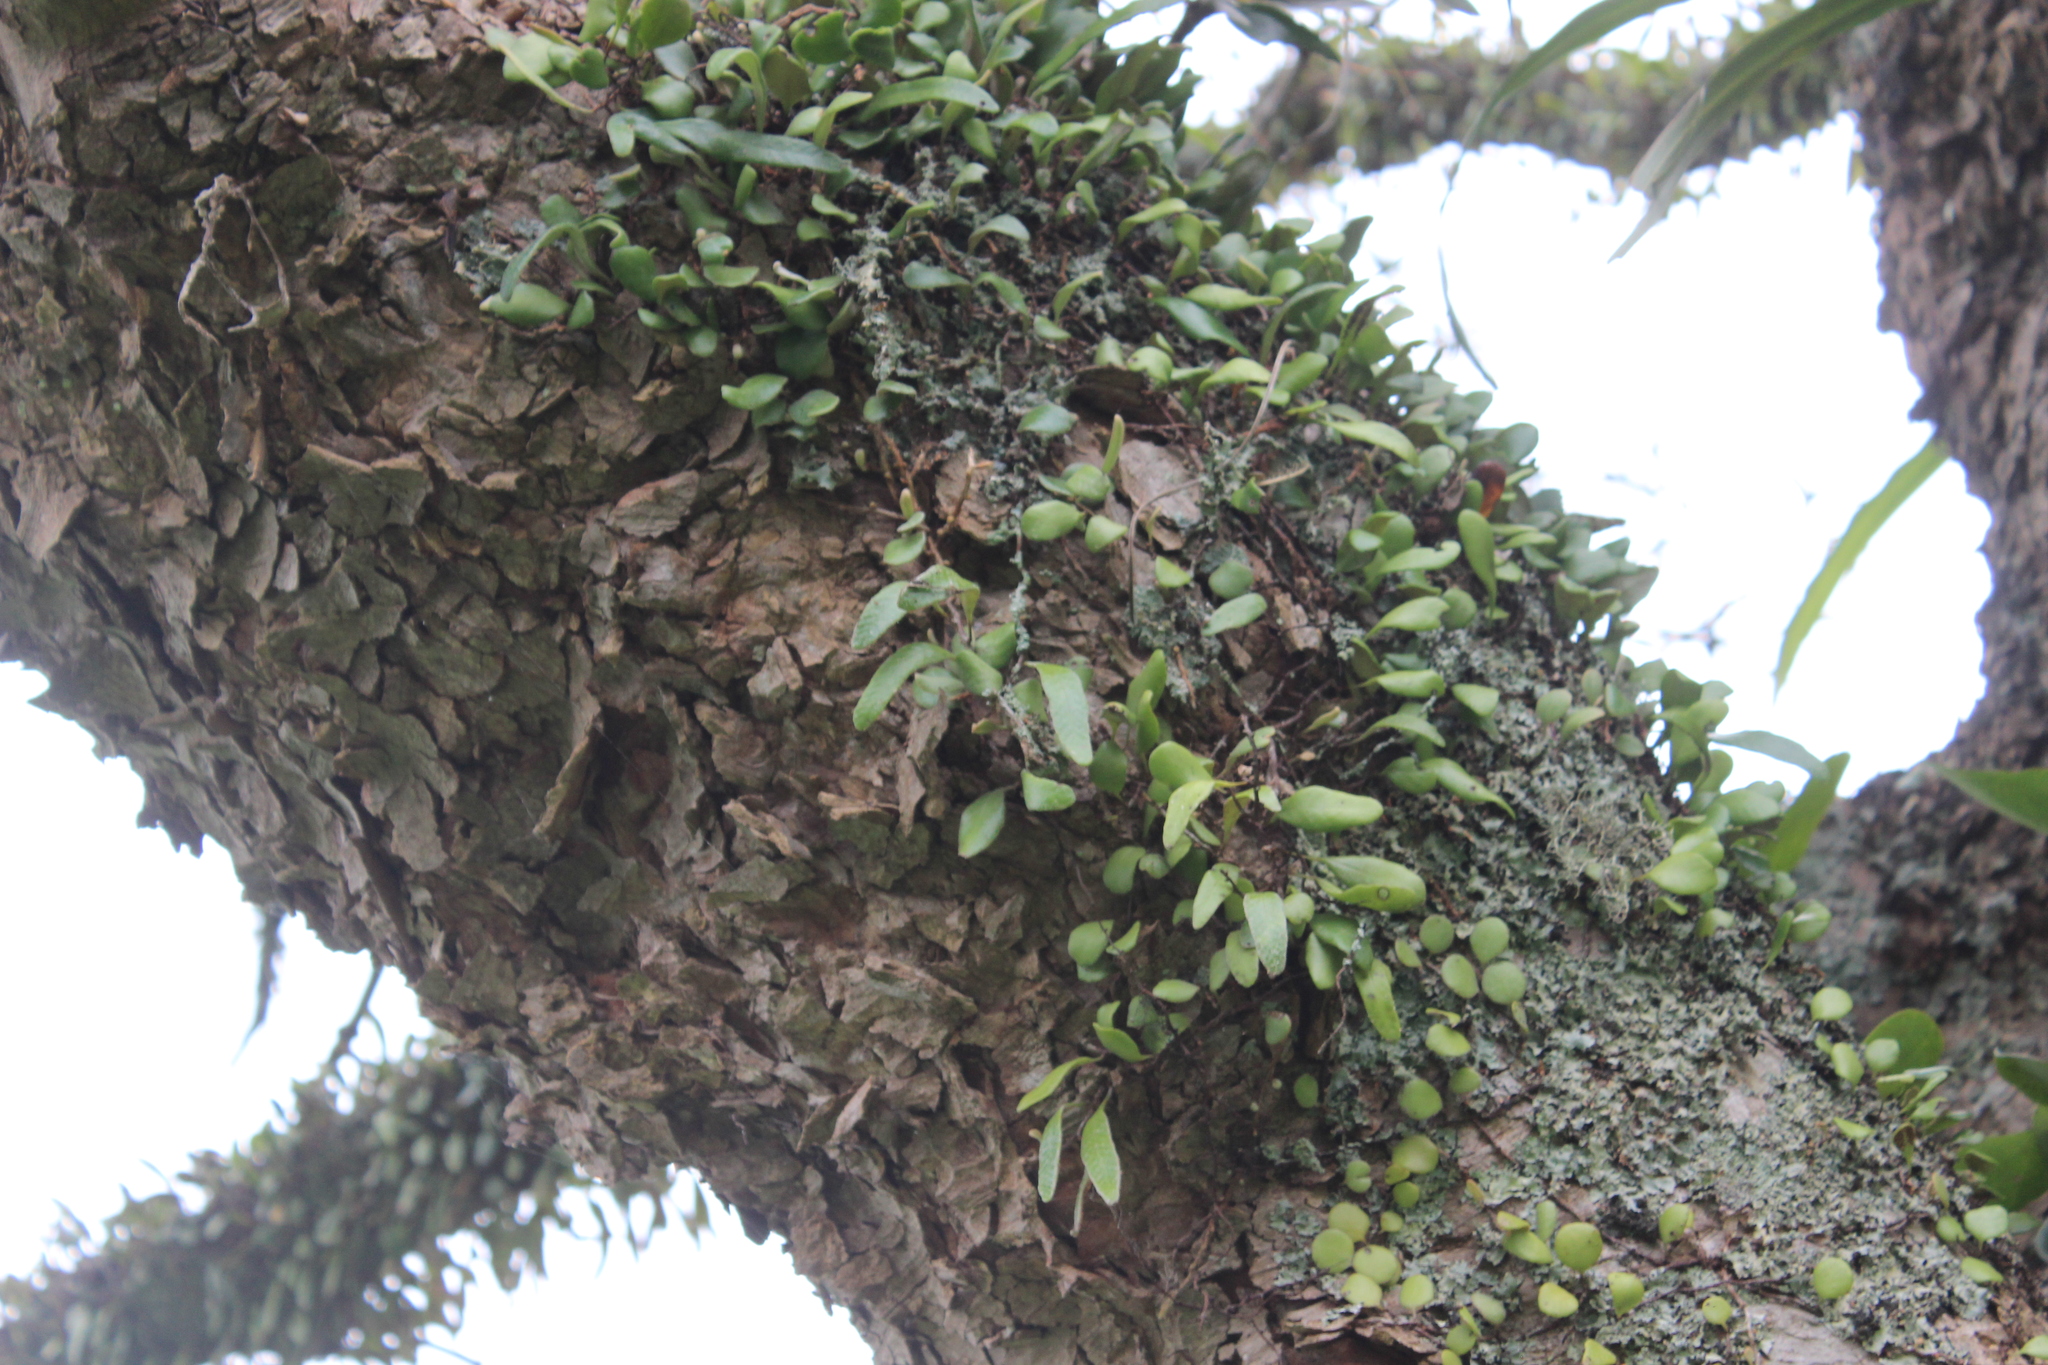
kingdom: Plantae
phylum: Tracheophyta
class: Polypodiopsida
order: Polypodiales
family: Polypodiaceae
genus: Pyrrosia
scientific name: Pyrrosia eleagnifolia
